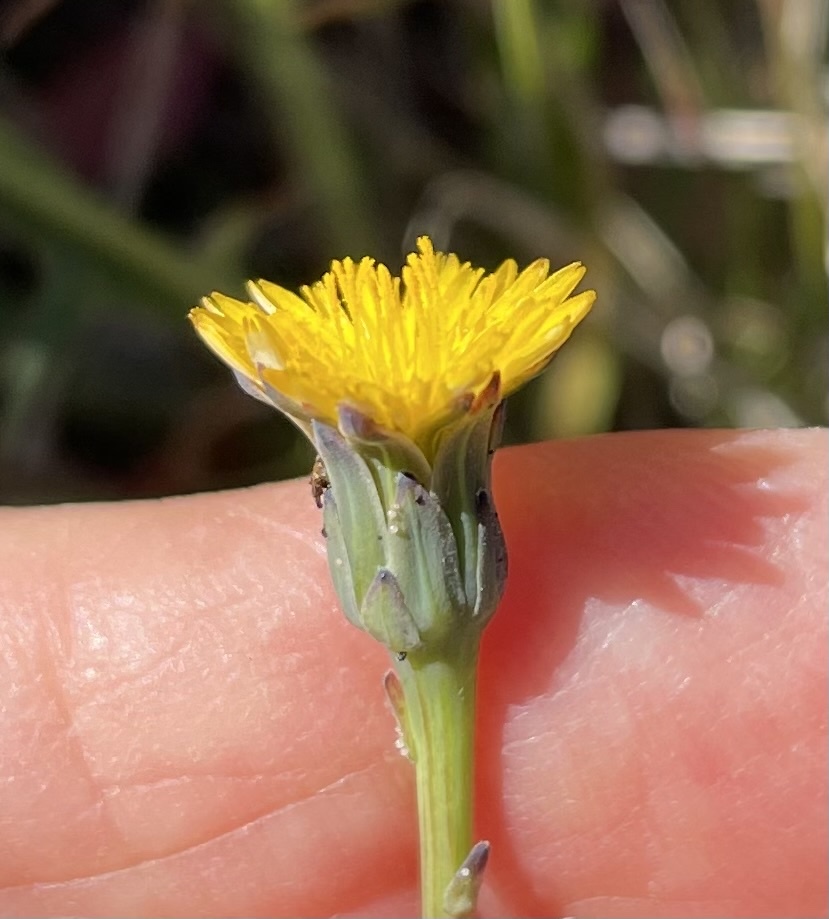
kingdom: Plantae
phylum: Tracheophyta
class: Magnoliopsida
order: Asterales
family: Asteraceae
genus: Hypochaeris
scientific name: Hypochaeris glabra
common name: Smooth catsear
